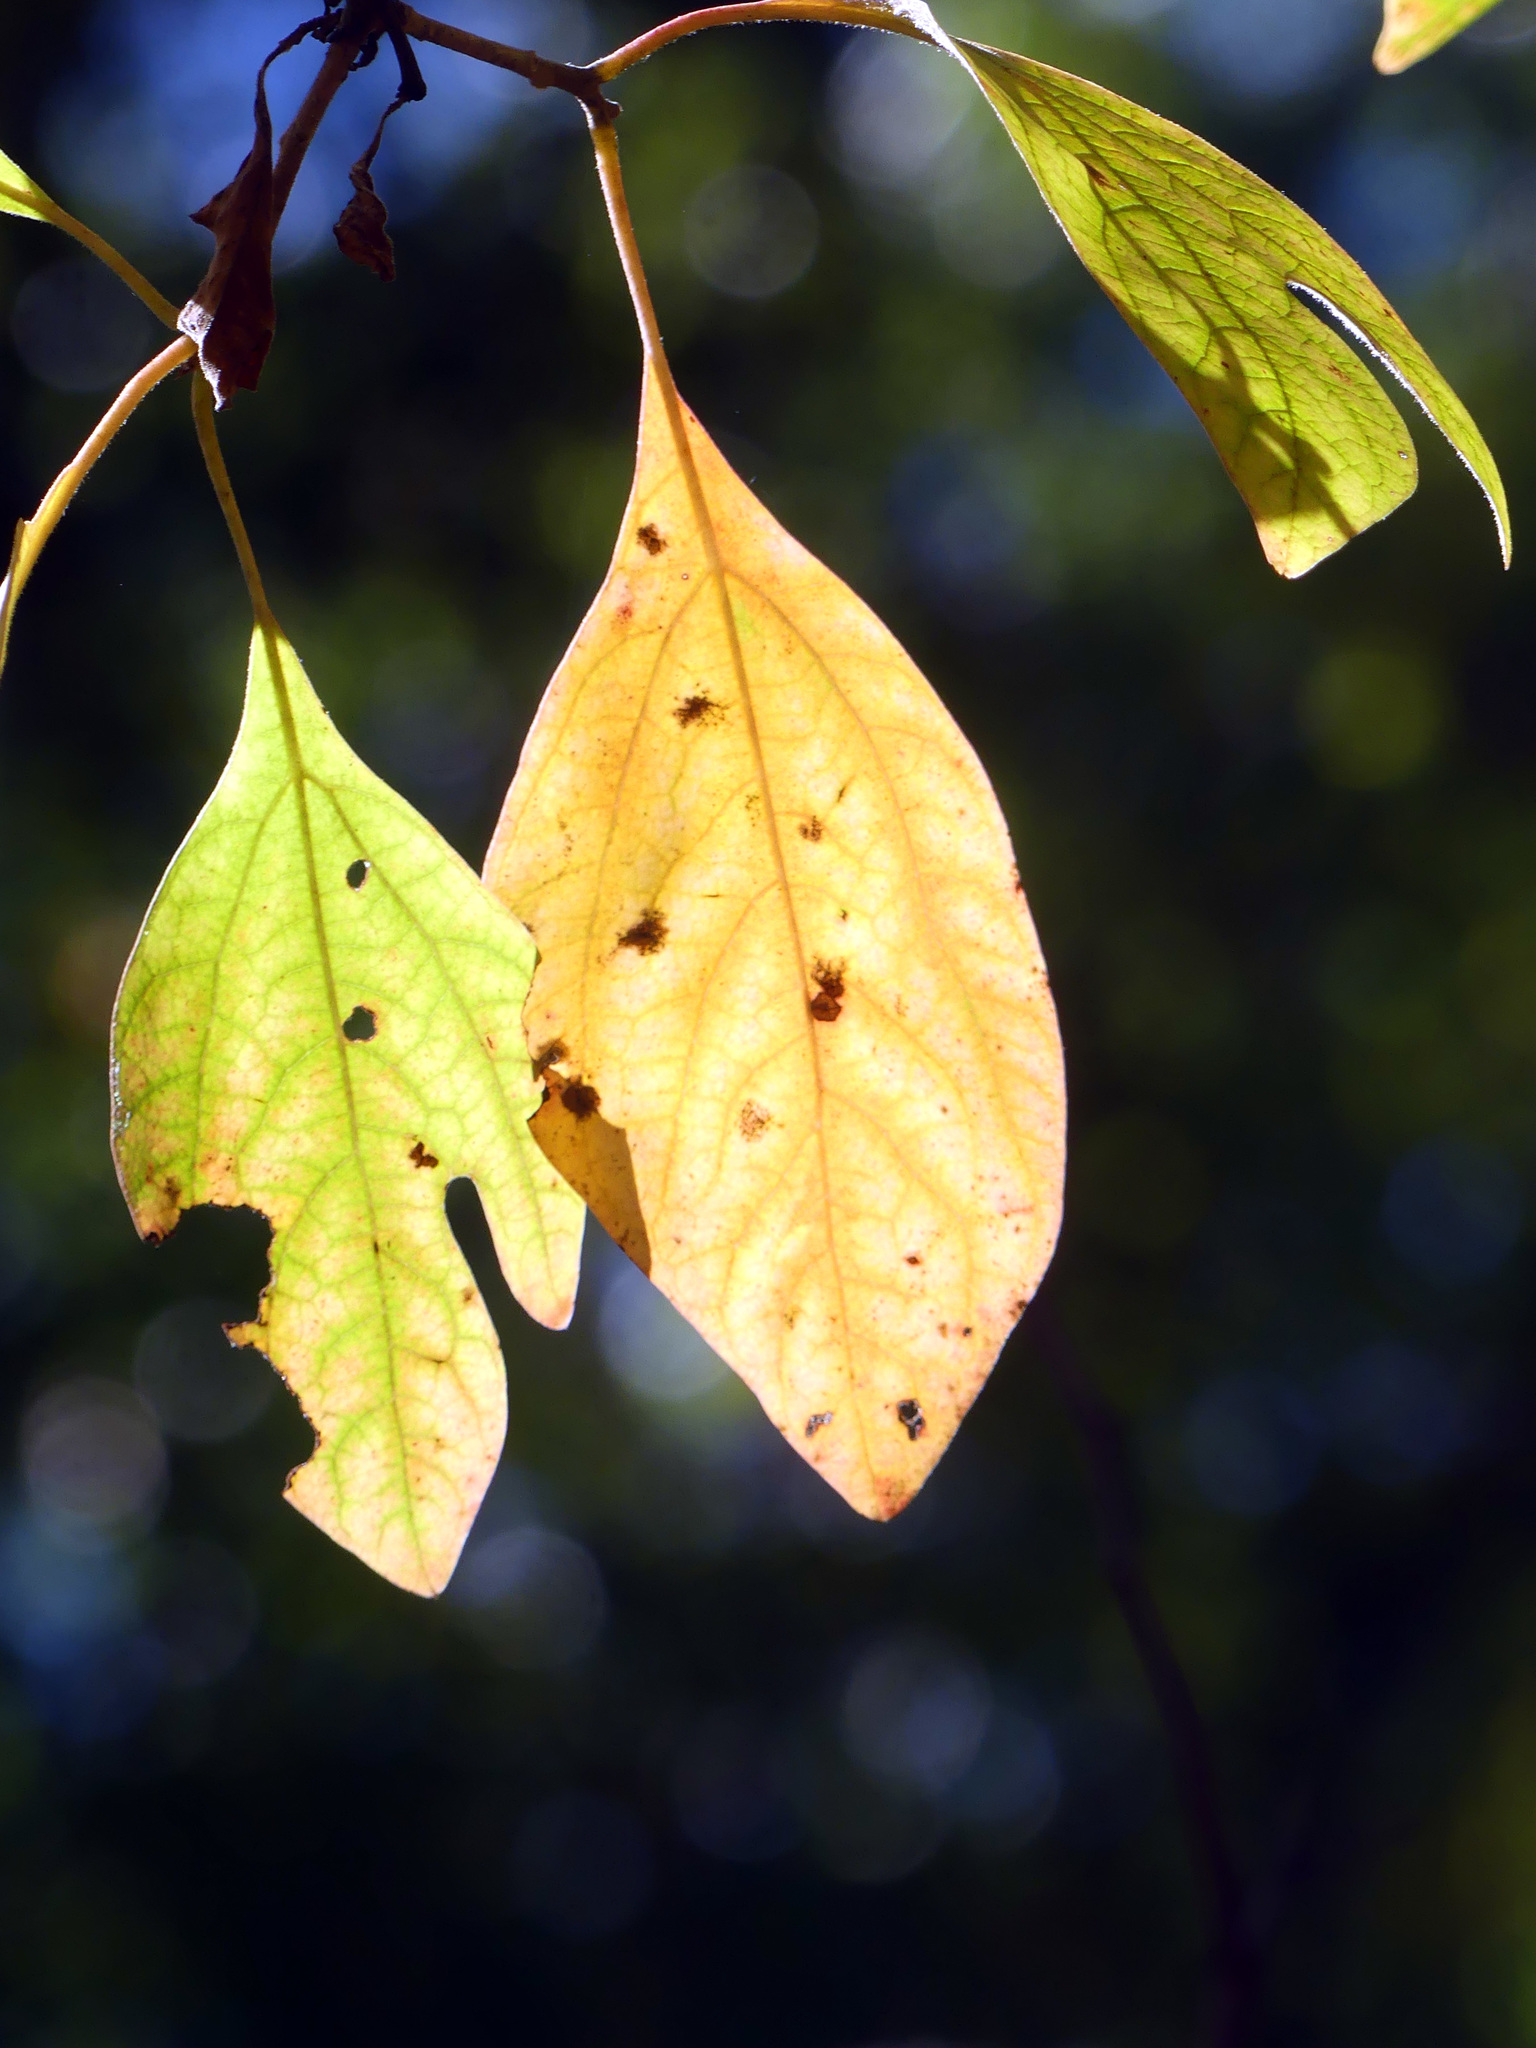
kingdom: Plantae
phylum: Tracheophyta
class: Magnoliopsida
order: Laurales
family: Lauraceae
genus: Sassafras
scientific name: Sassafras albidum
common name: Sassafras
